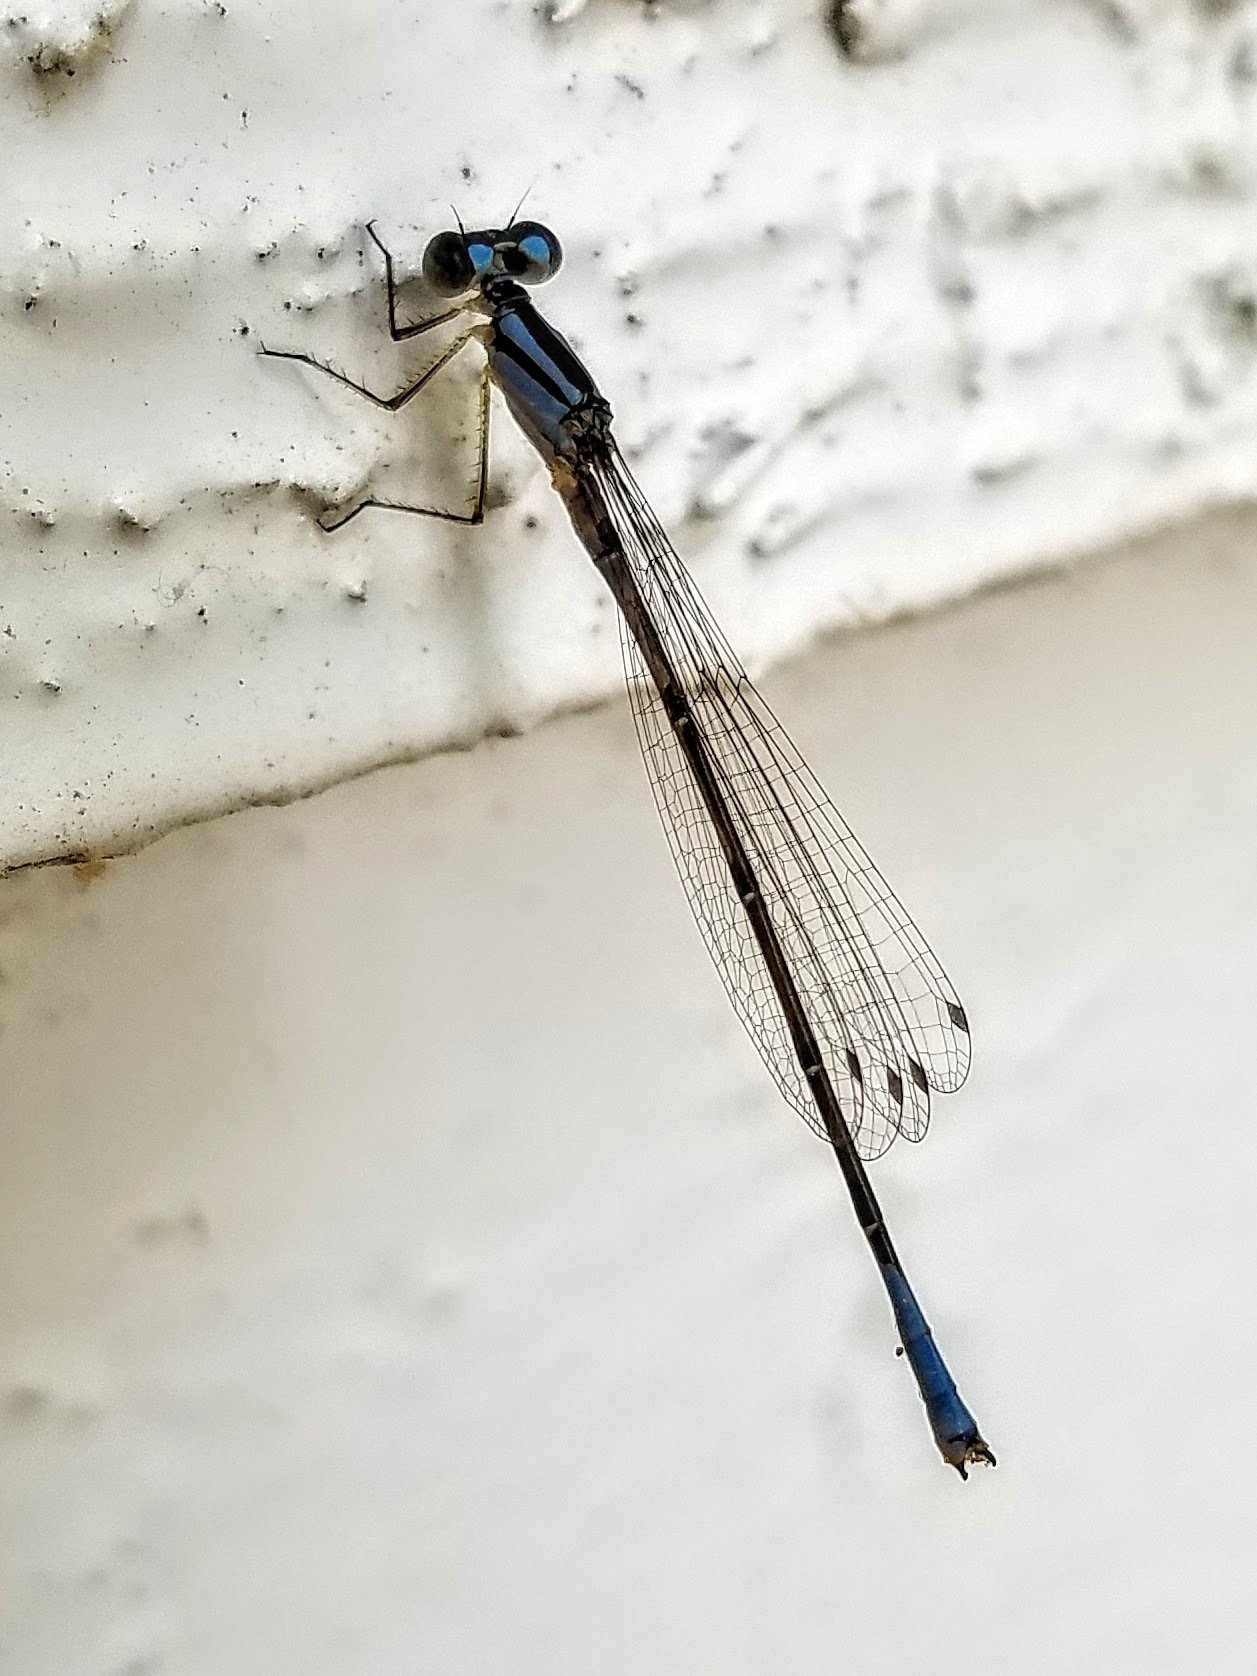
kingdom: Animalia
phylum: Arthropoda
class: Insecta
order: Odonata
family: Coenagrionidae
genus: Enallagma
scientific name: Enallagma aspersum
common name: Azure bluet
